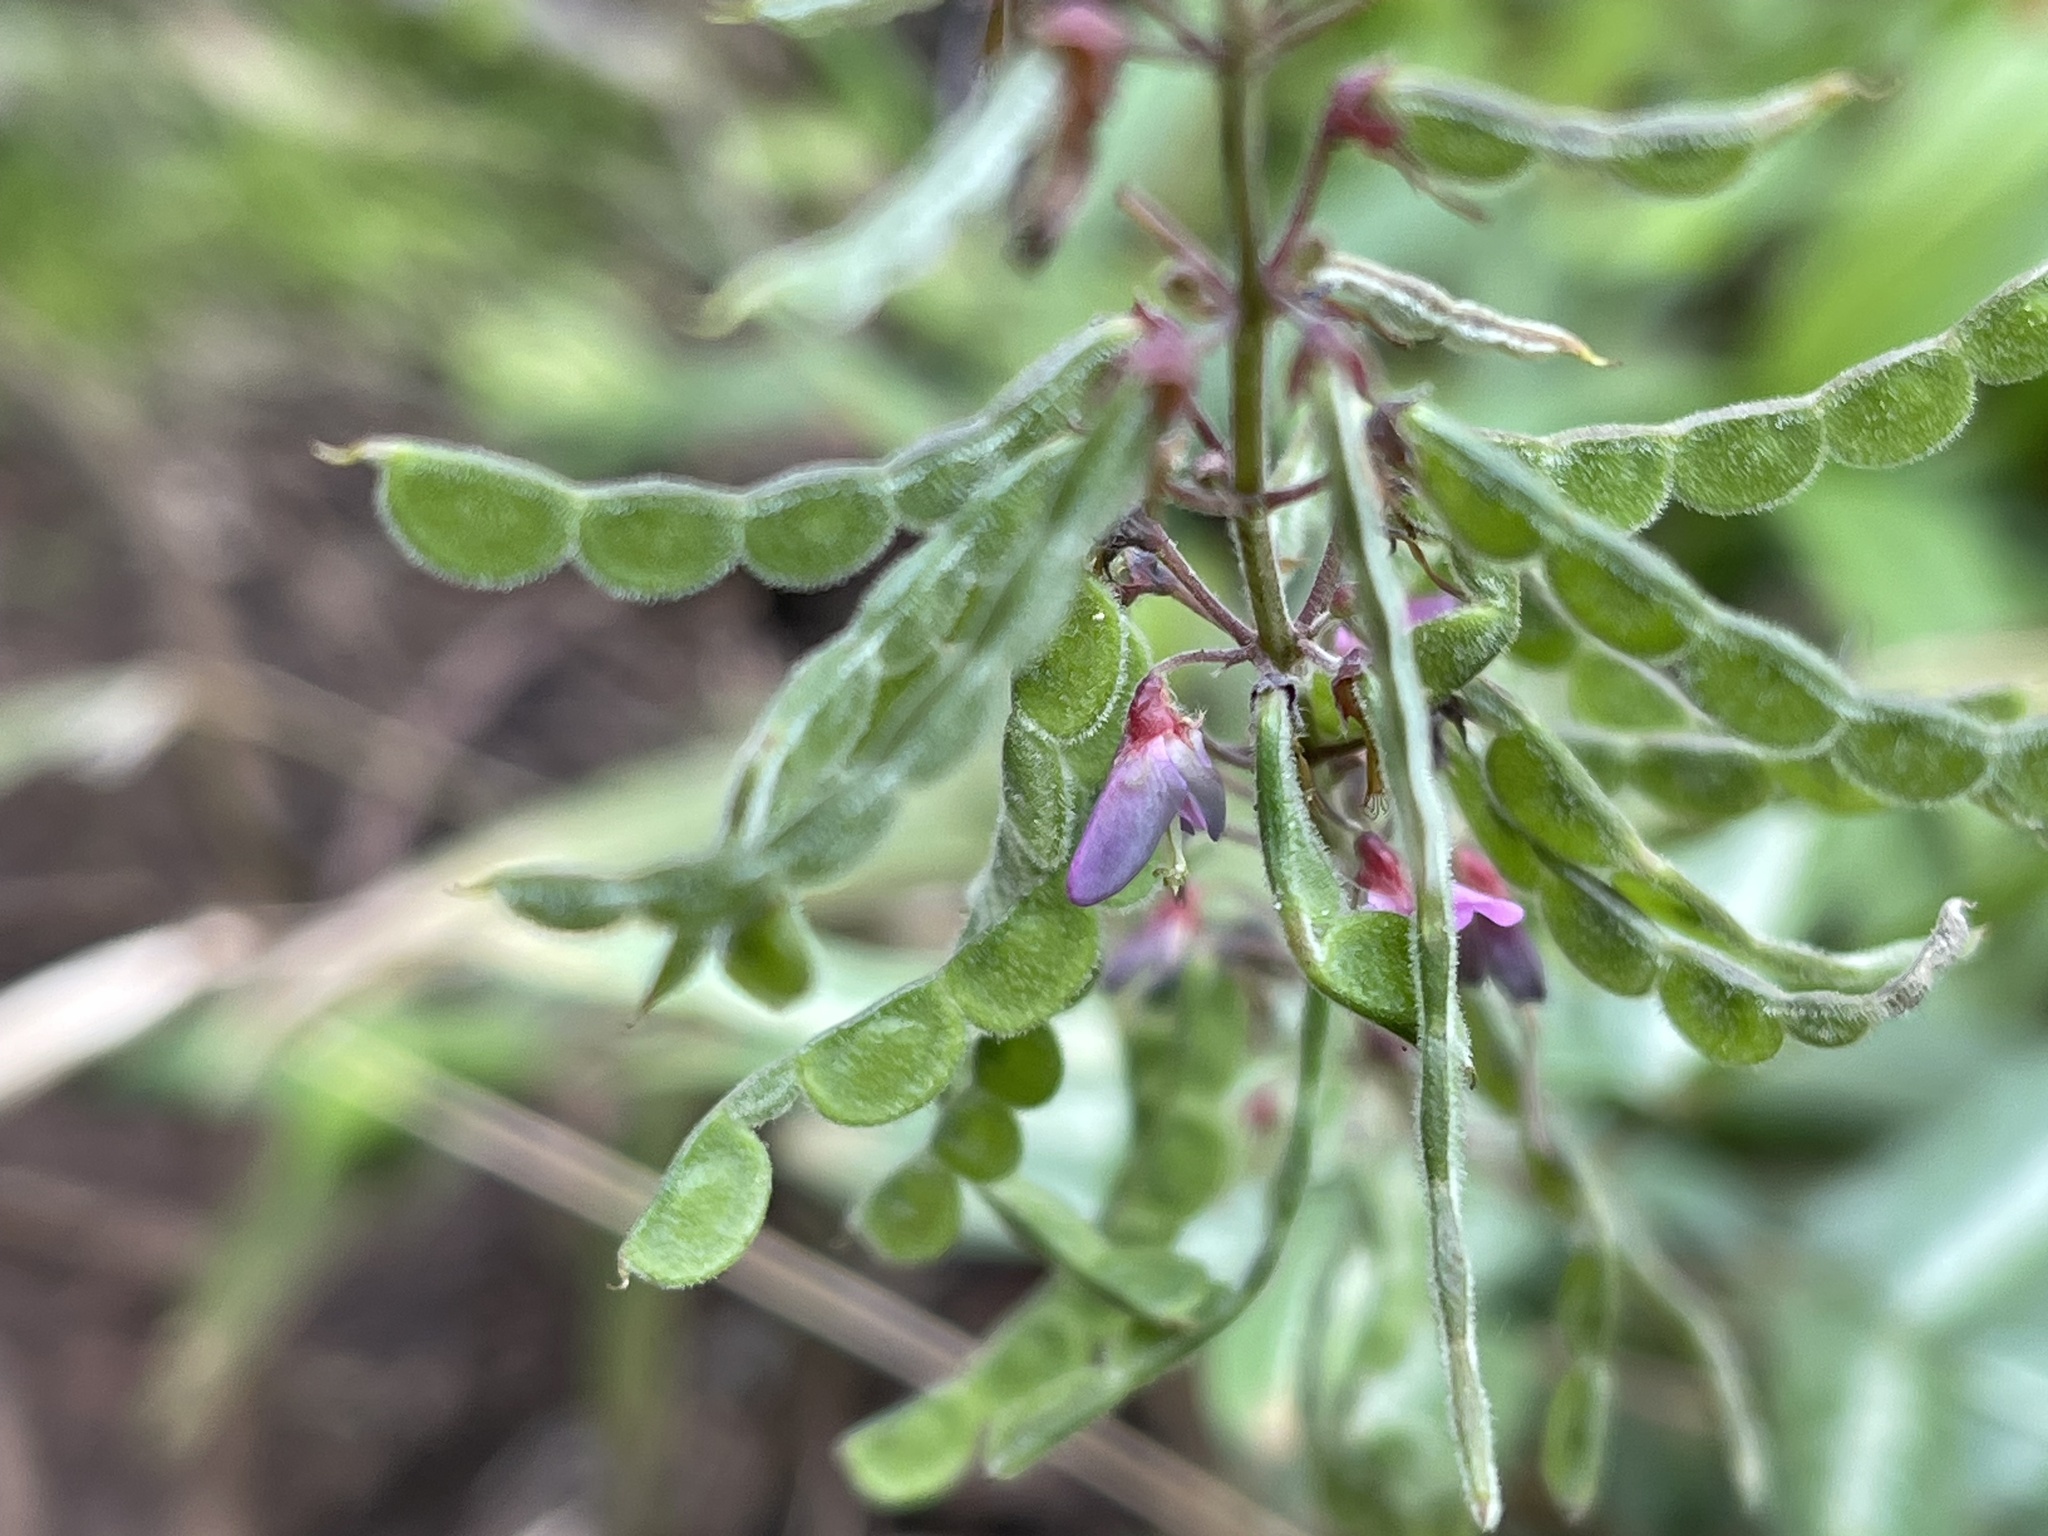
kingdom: Plantae
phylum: Tracheophyta
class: Magnoliopsida
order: Fabales
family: Fabaceae
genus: Desmodium
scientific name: Desmodium incanum
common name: Tickclover
